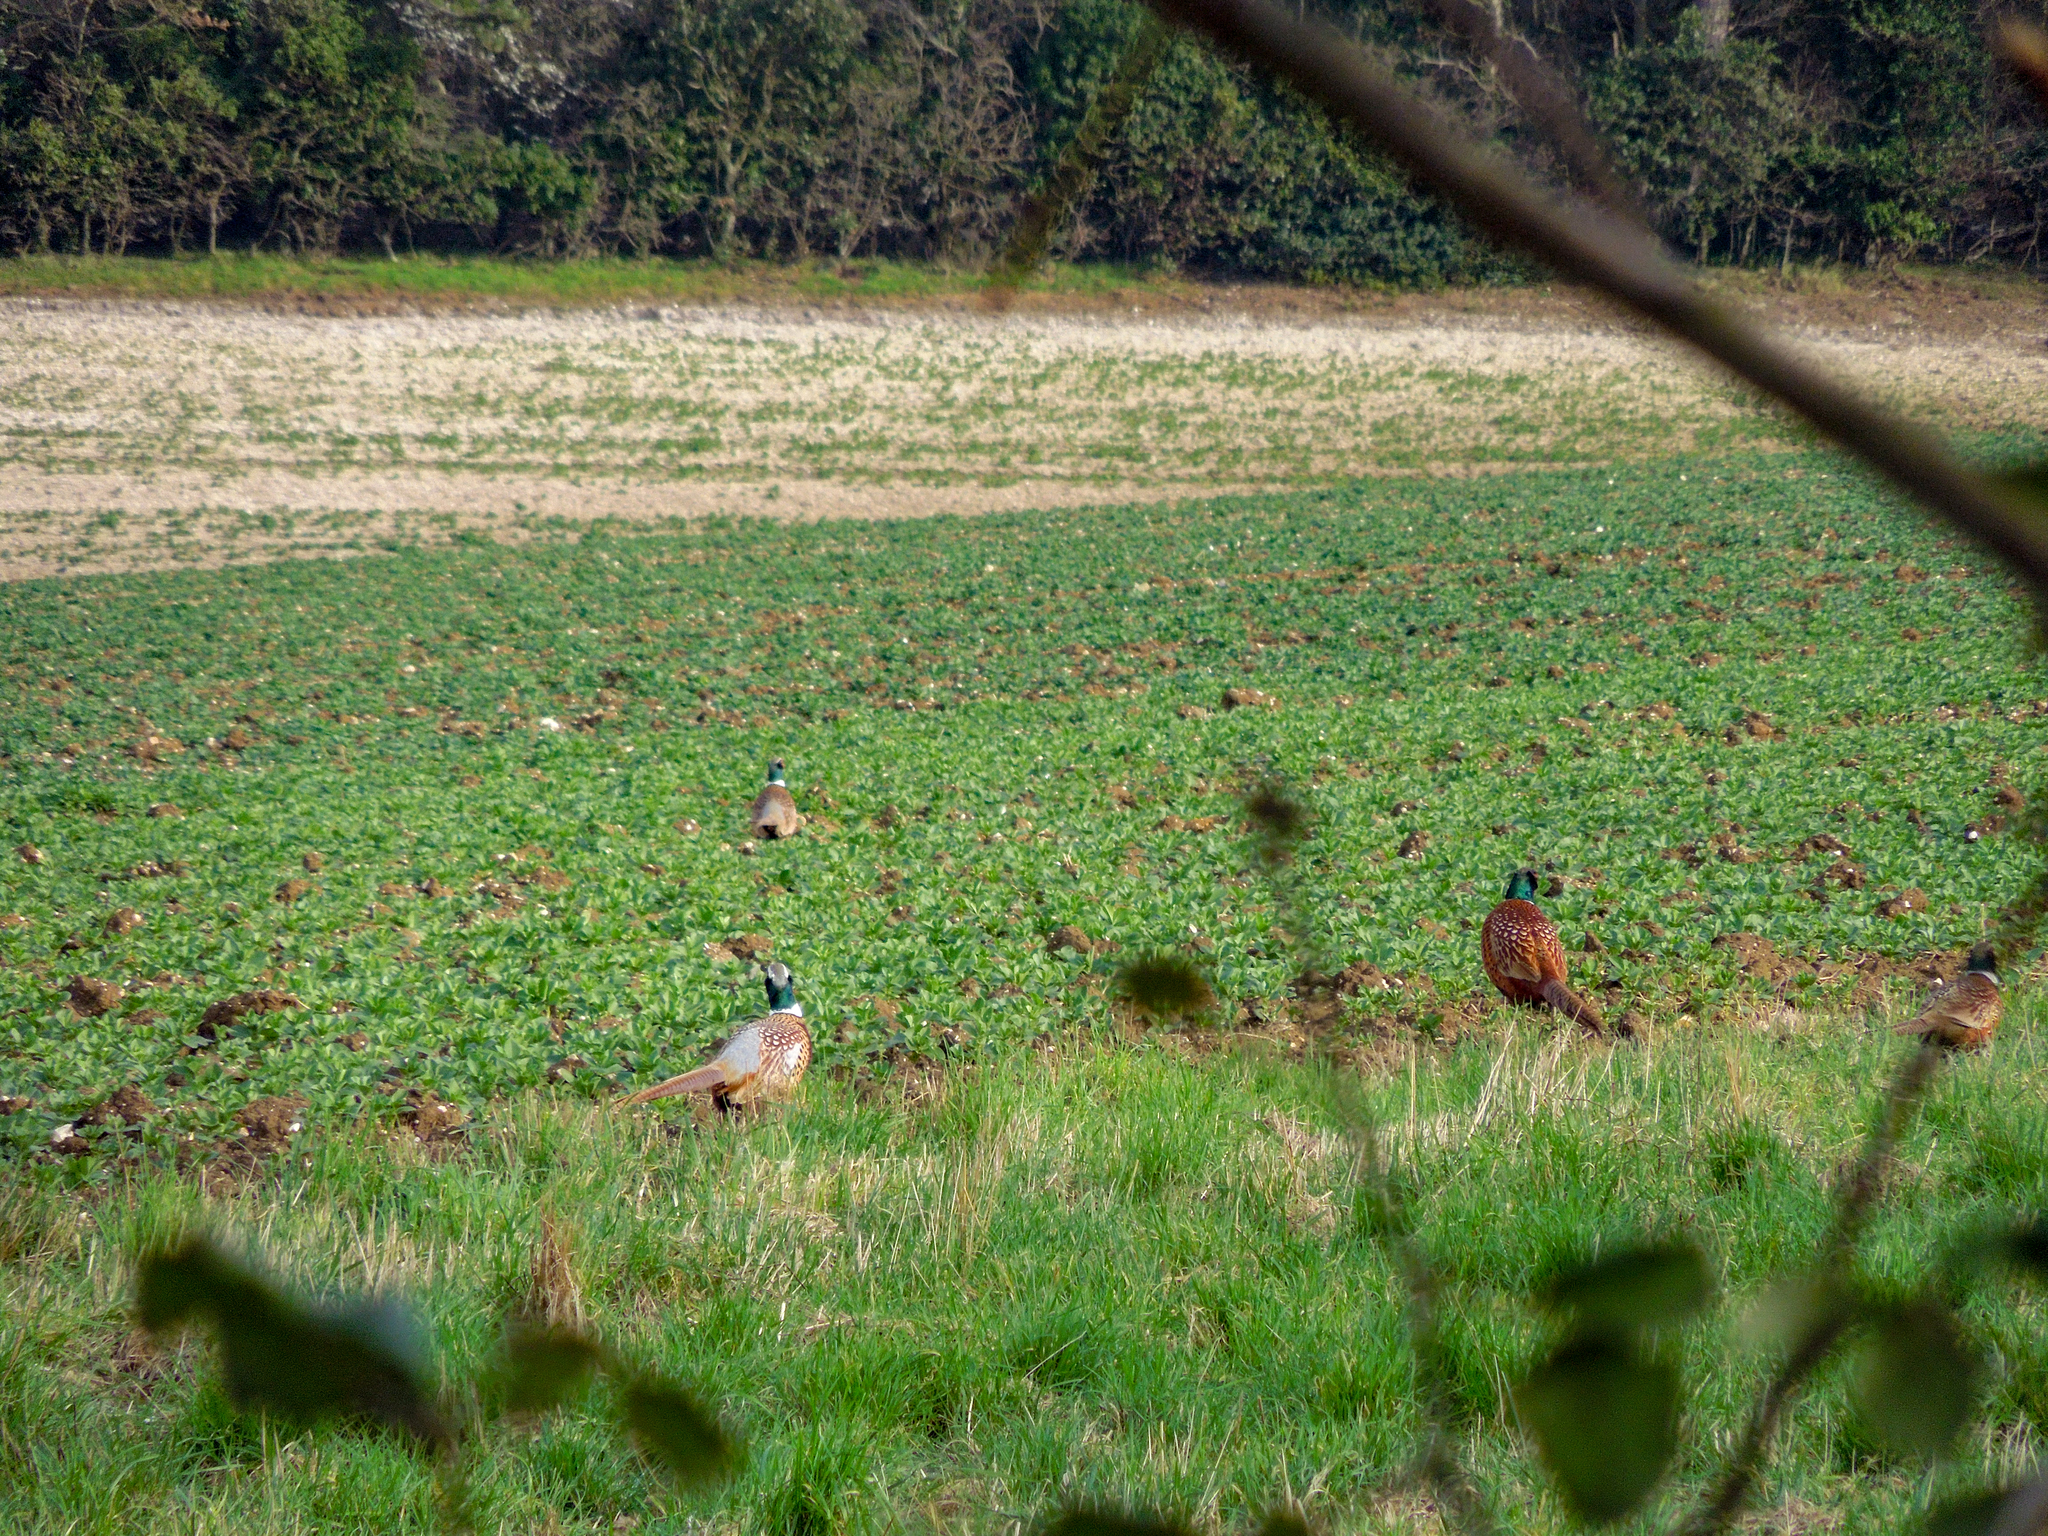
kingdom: Animalia
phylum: Chordata
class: Aves
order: Galliformes
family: Phasianidae
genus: Phasianus
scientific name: Phasianus colchicus
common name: Common pheasant
